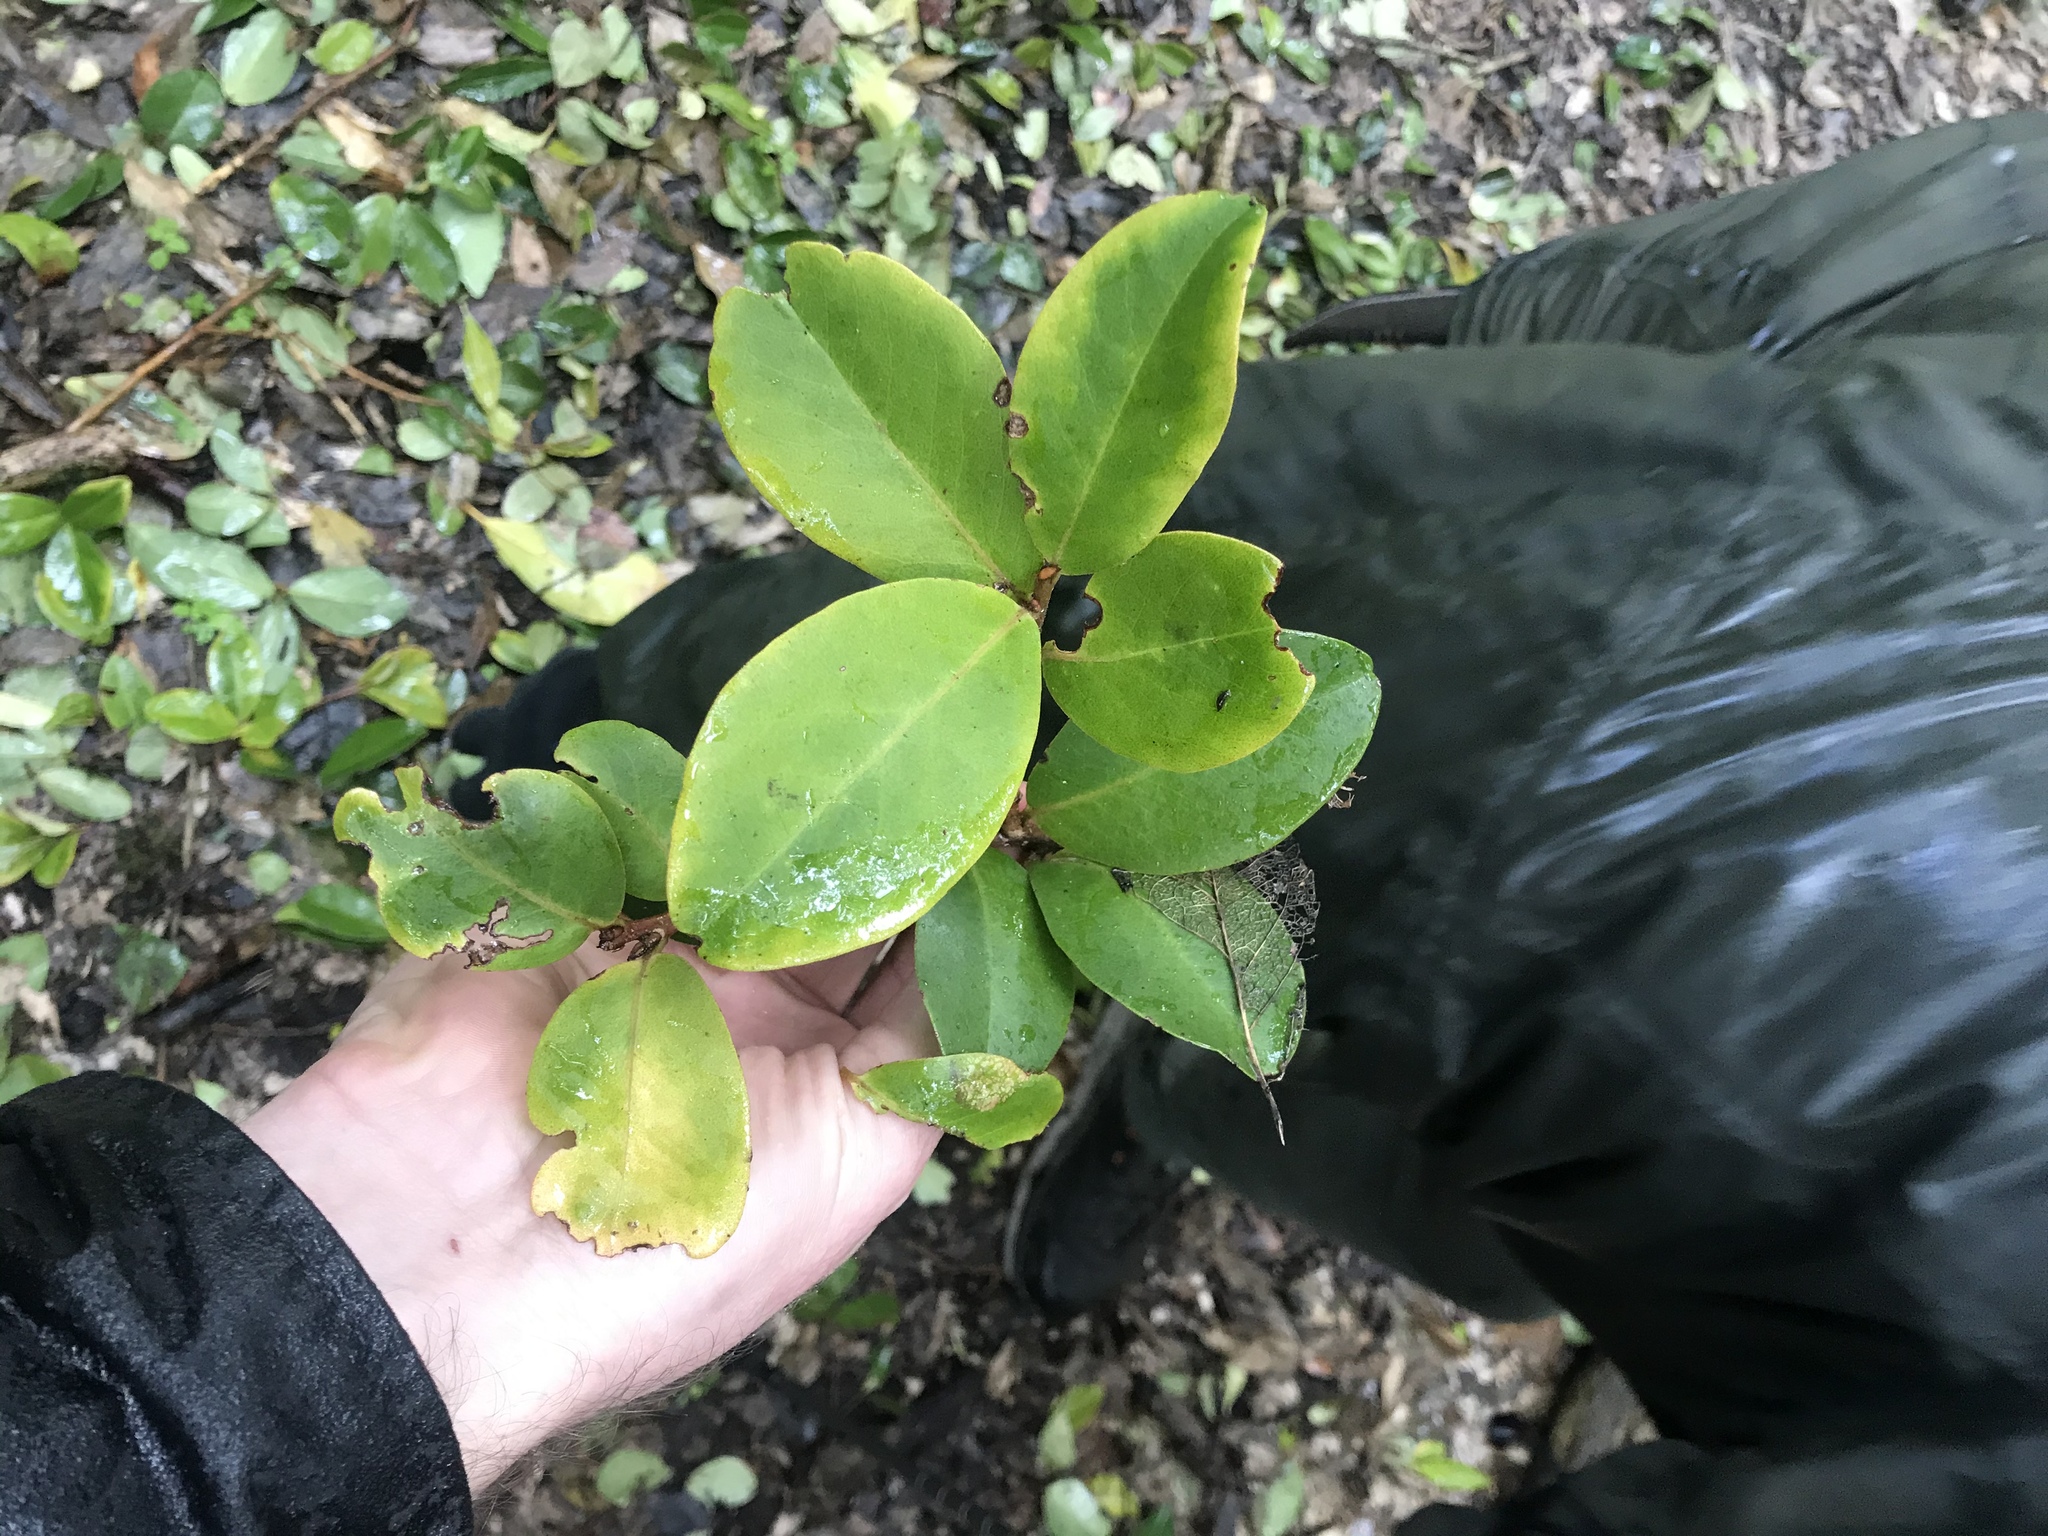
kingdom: Plantae
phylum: Tracheophyta
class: Magnoliopsida
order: Ericales
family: Primulaceae
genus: Myrsine
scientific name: Myrsine chathamica
